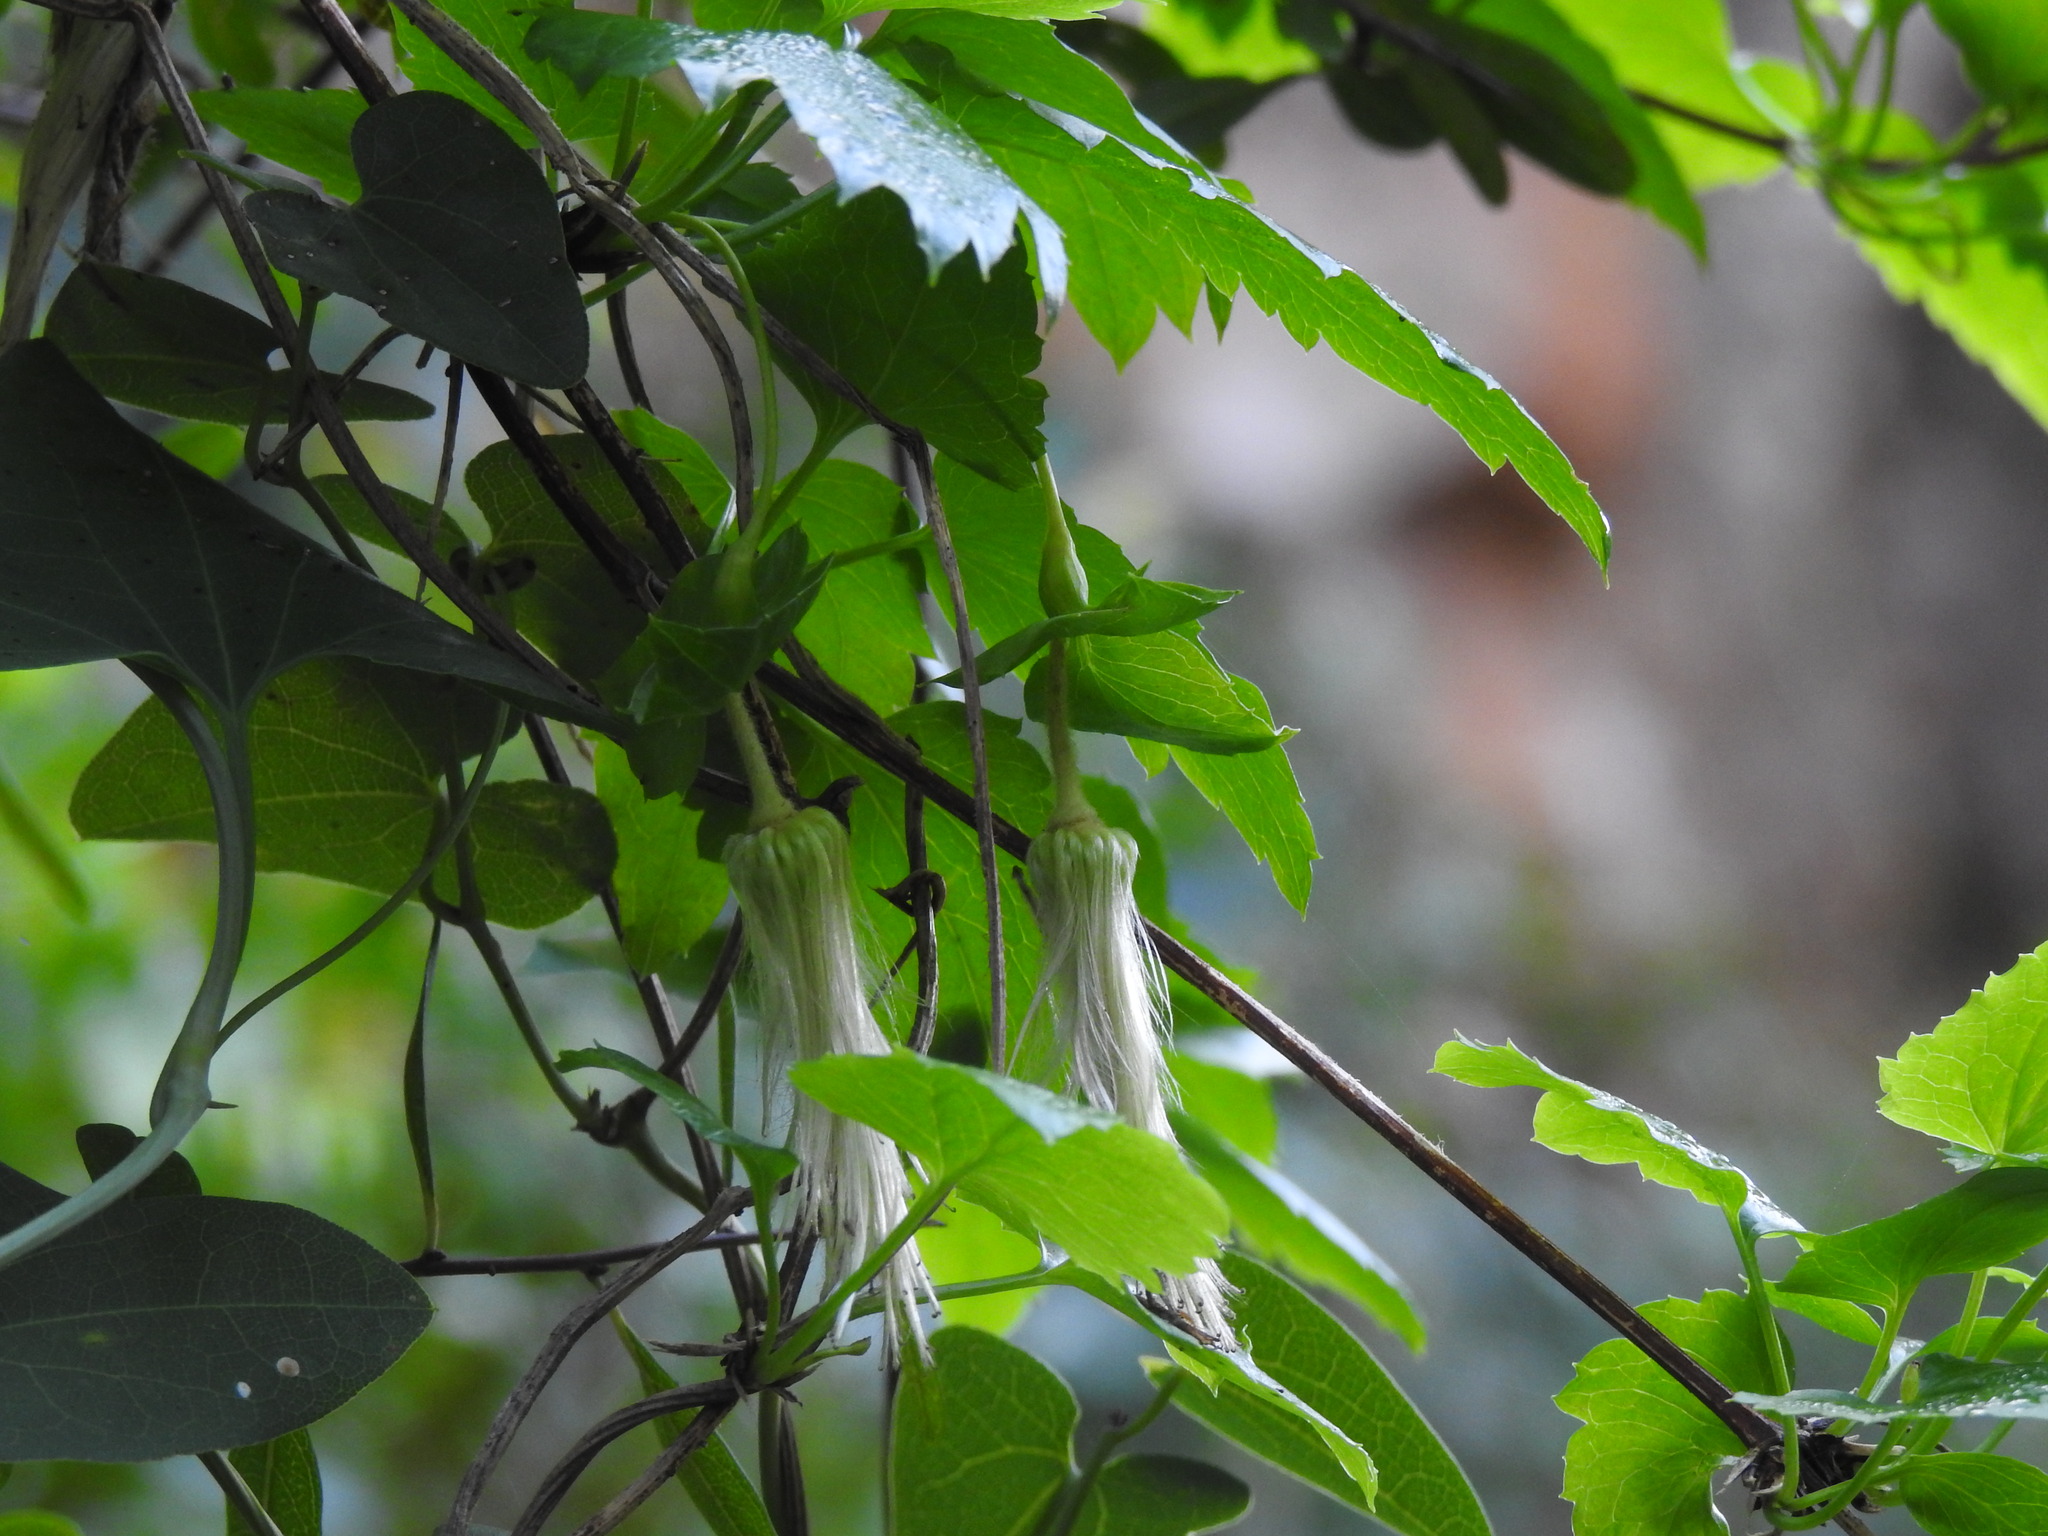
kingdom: Plantae
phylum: Tracheophyta
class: Magnoliopsida
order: Ranunculales
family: Ranunculaceae
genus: Clematis
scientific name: Clematis cirrhosa
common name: Early virgin's-bower
